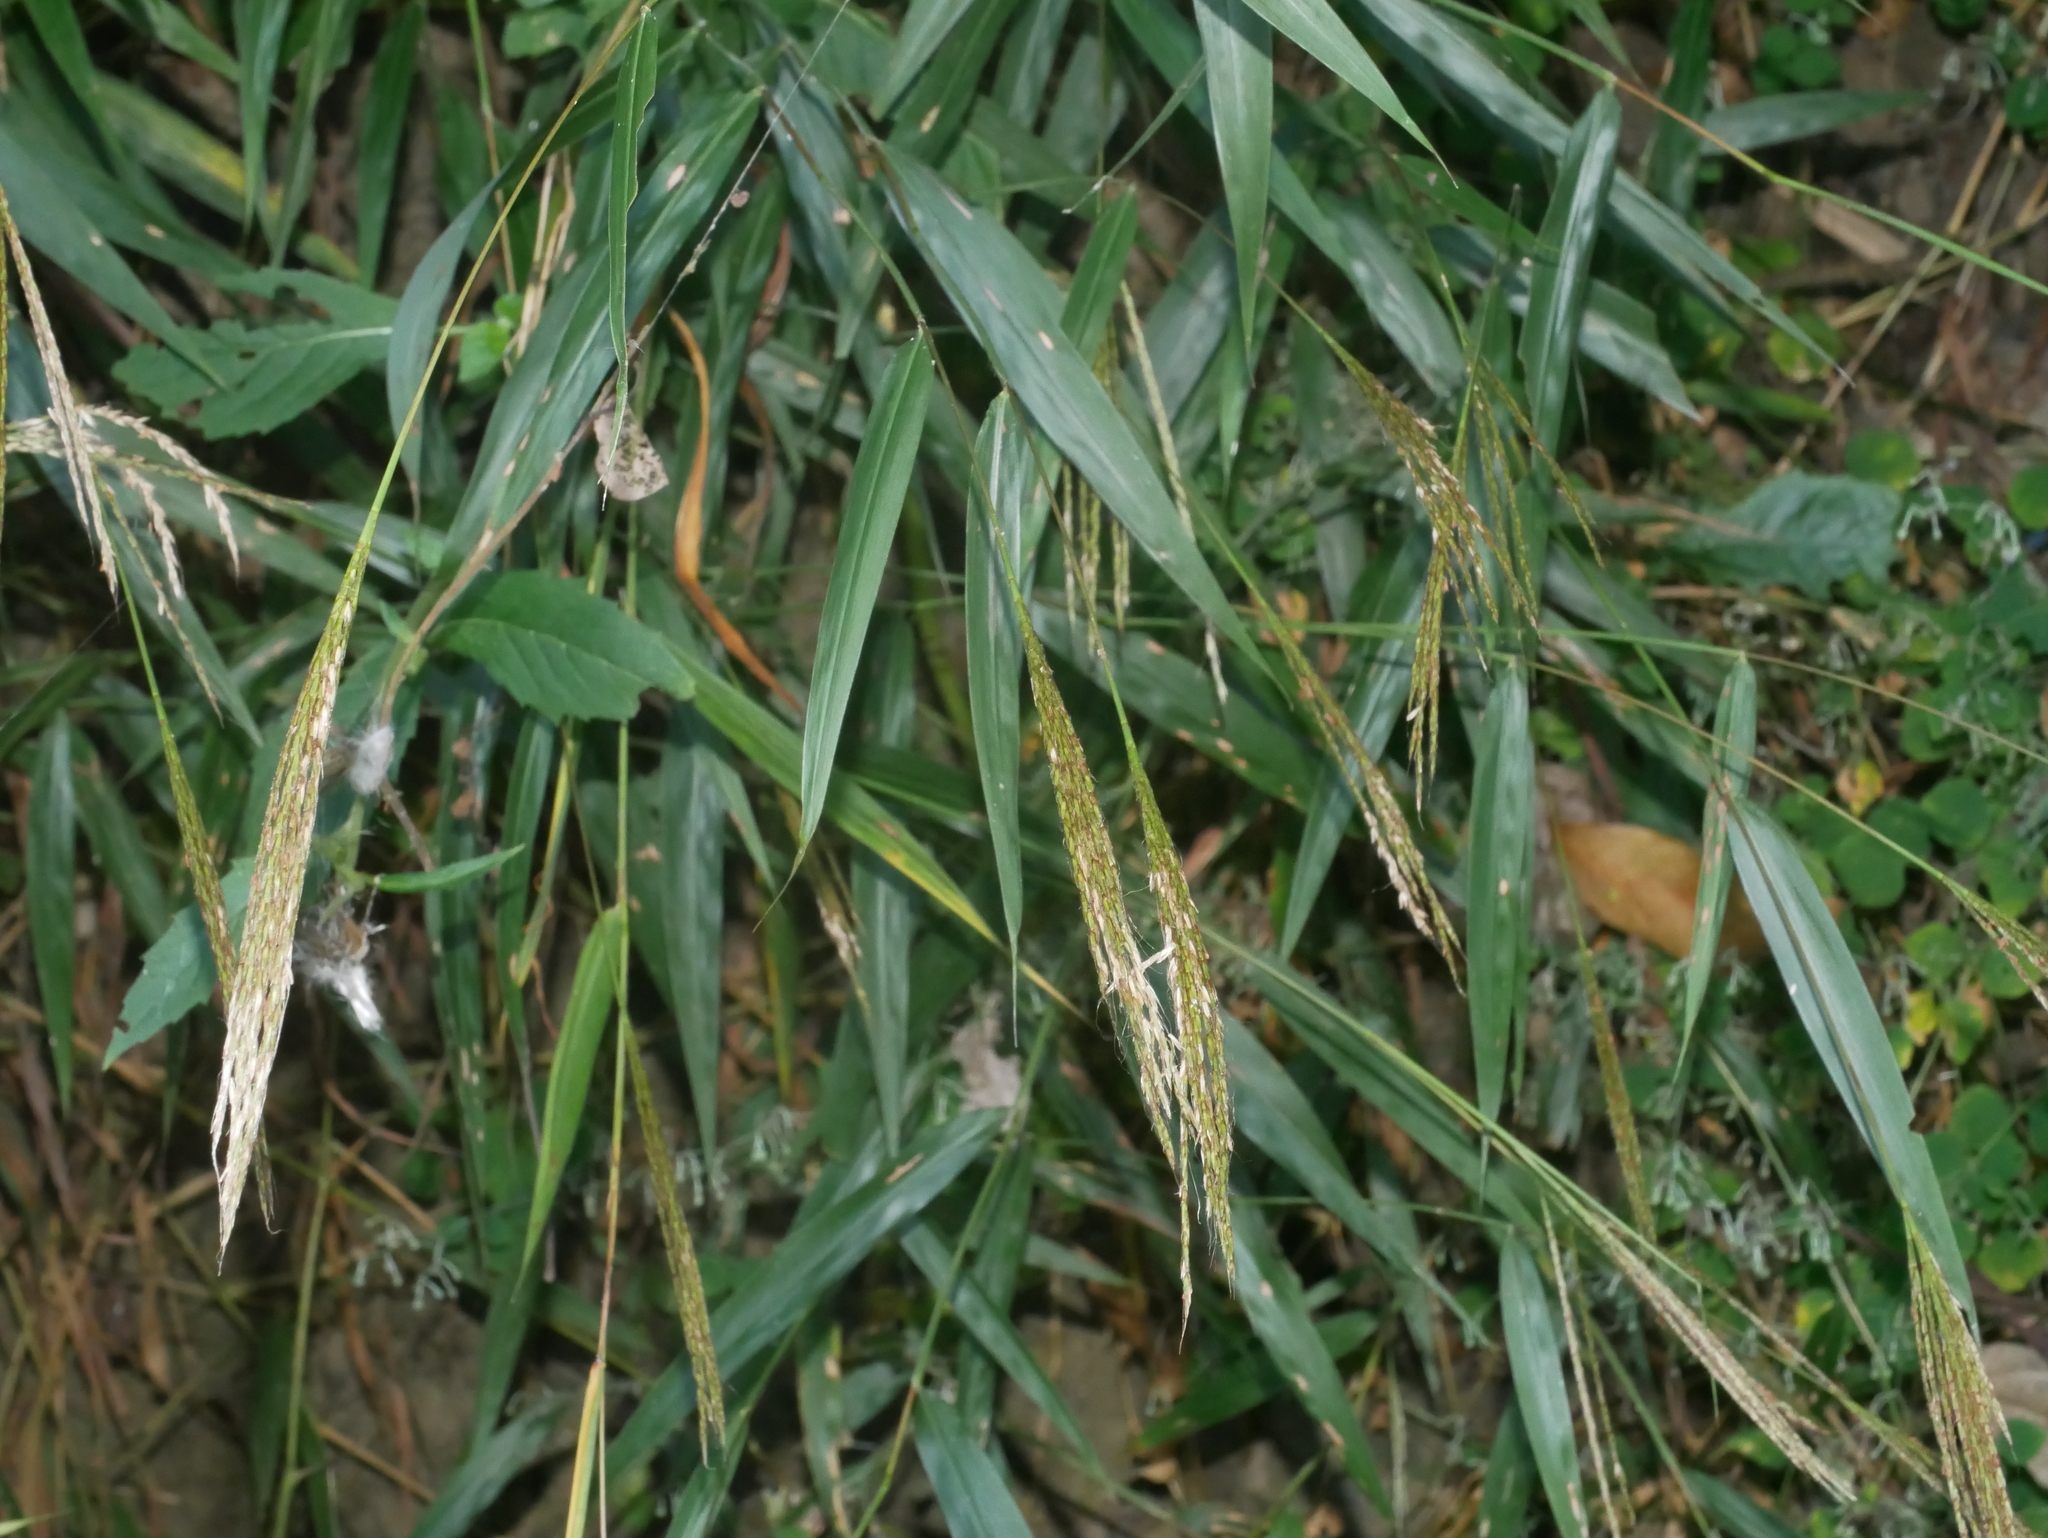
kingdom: Plantae
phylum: Tracheophyta
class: Liliopsida
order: Poales
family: Poaceae
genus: Microstegium
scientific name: Microstegium fasciculatum
